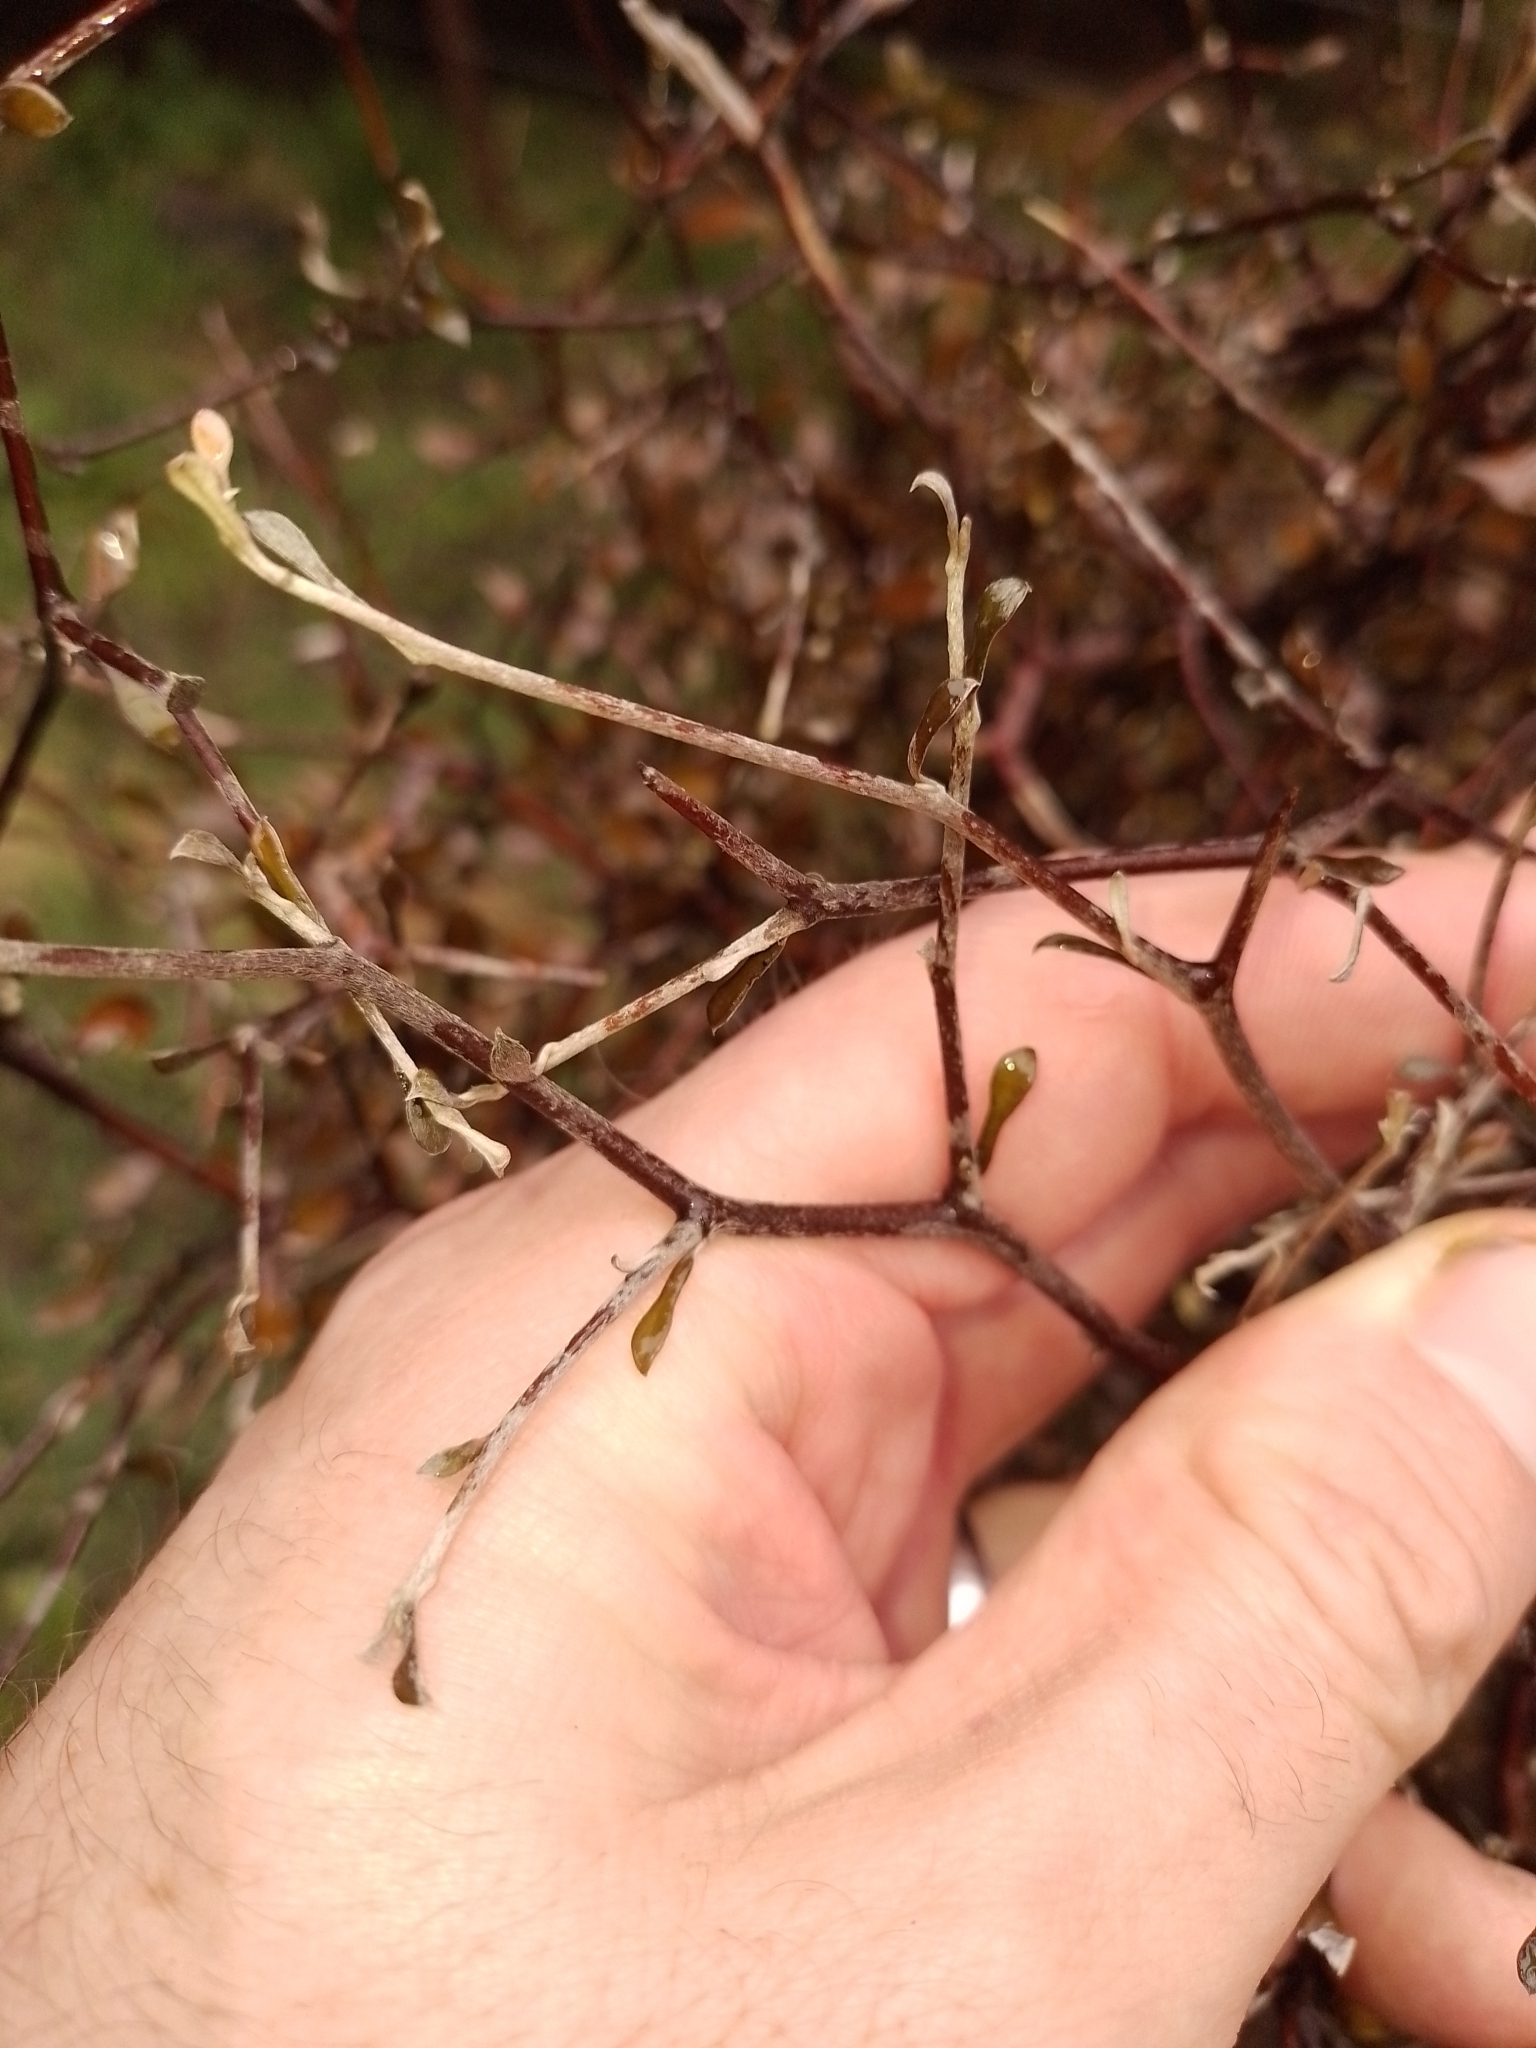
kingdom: Plantae
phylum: Tracheophyta
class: Magnoliopsida
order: Asterales
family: Argophyllaceae
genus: Corokia
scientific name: Corokia cotoneaster
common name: Wire nettingbush
